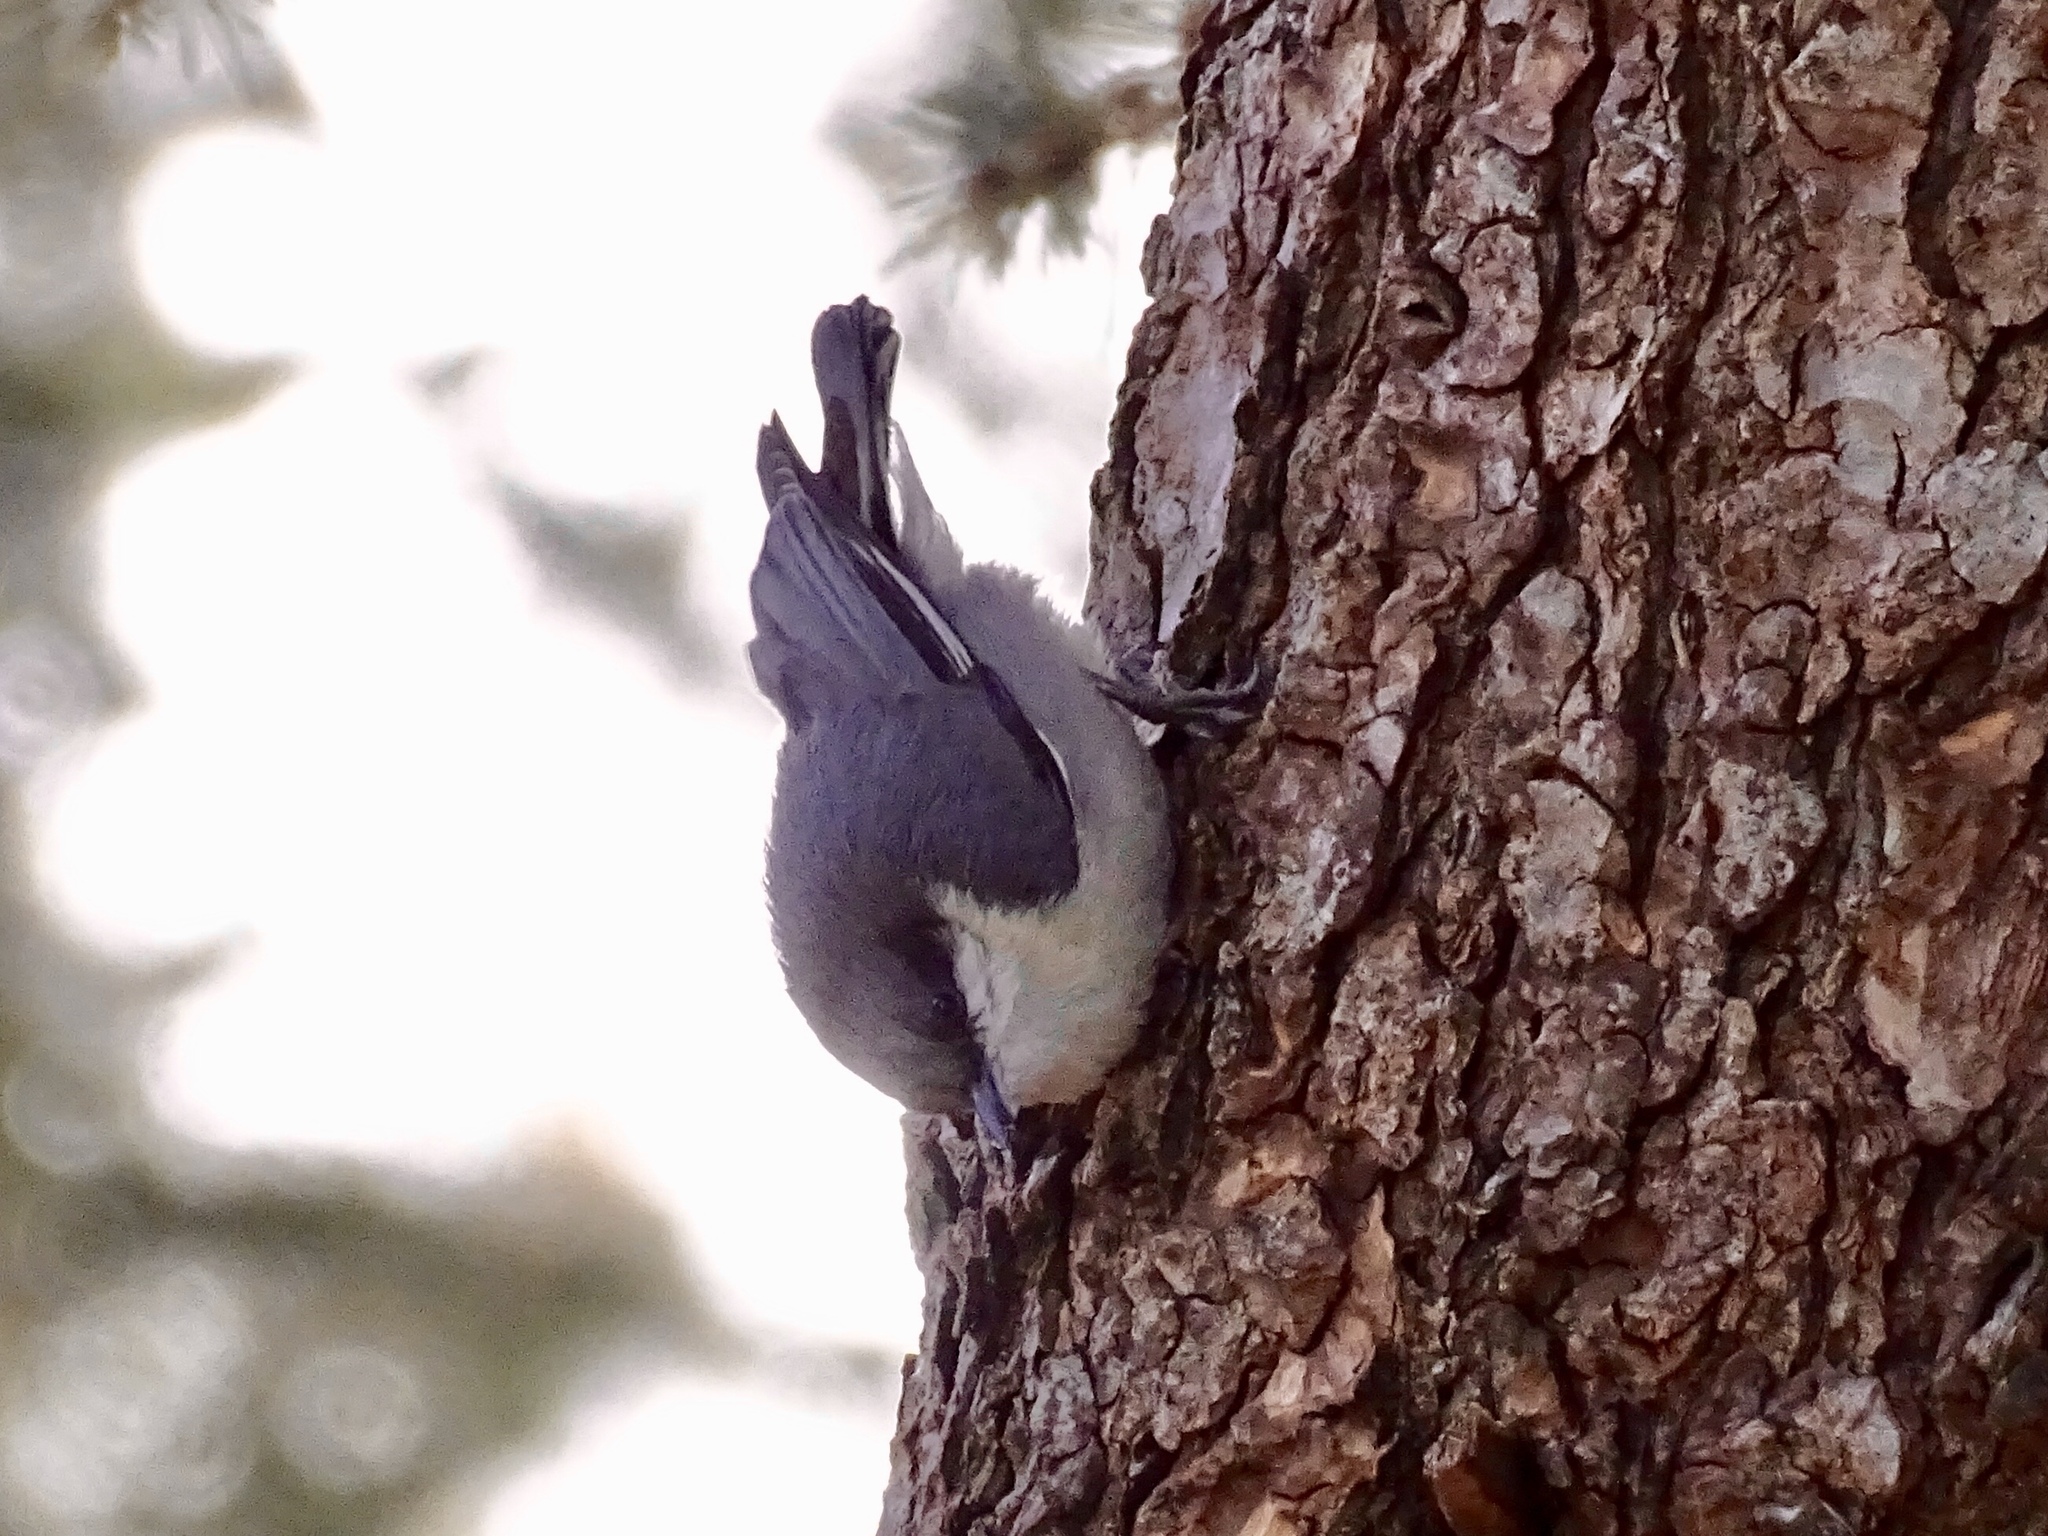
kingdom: Animalia
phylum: Chordata
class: Aves
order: Passeriformes
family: Sittidae
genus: Sitta
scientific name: Sitta pygmaea
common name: Pygmy nuthatch
